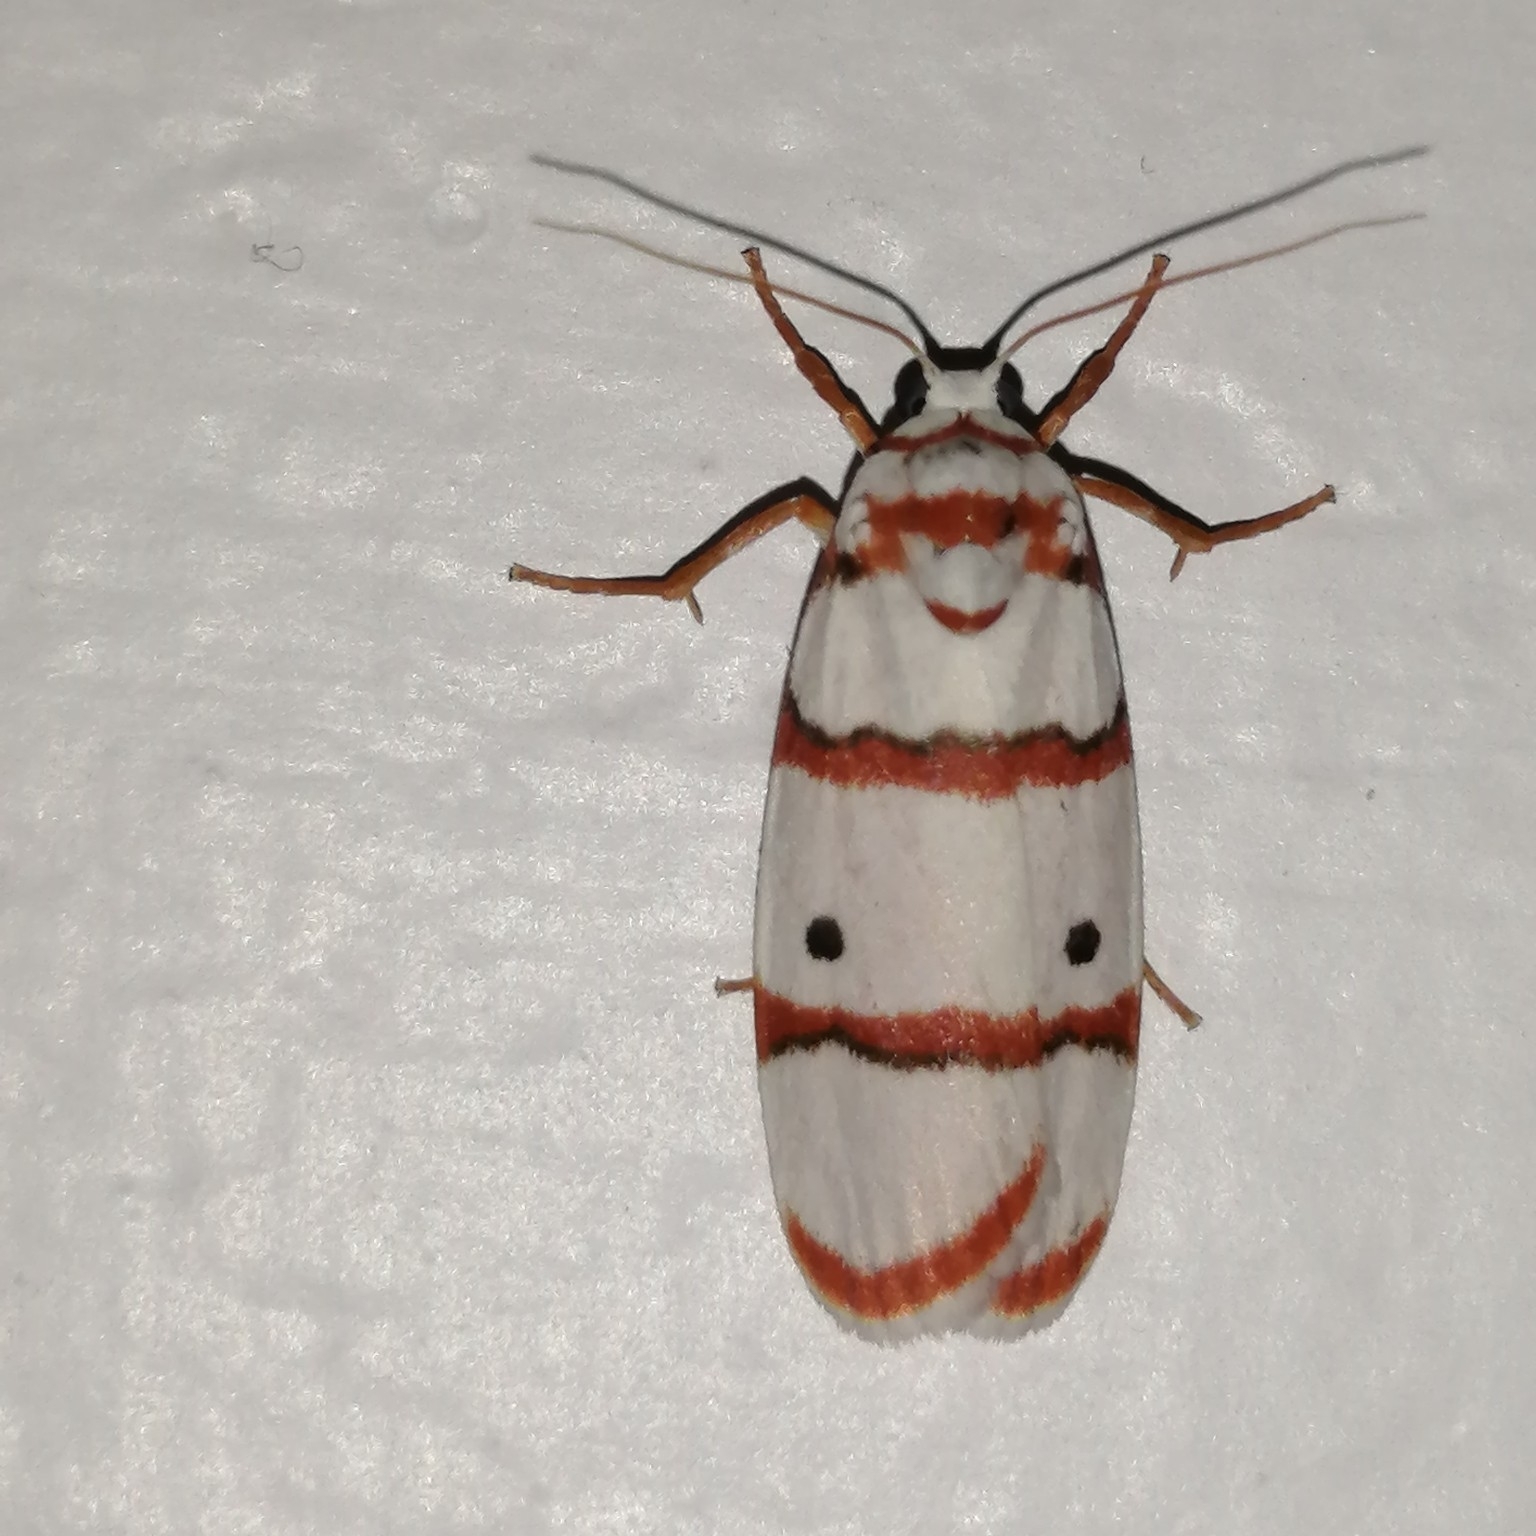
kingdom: Animalia
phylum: Arthropoda
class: Insecta
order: Lepidoptera
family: Erebidae
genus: Cyana
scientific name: Cyana peregrina
